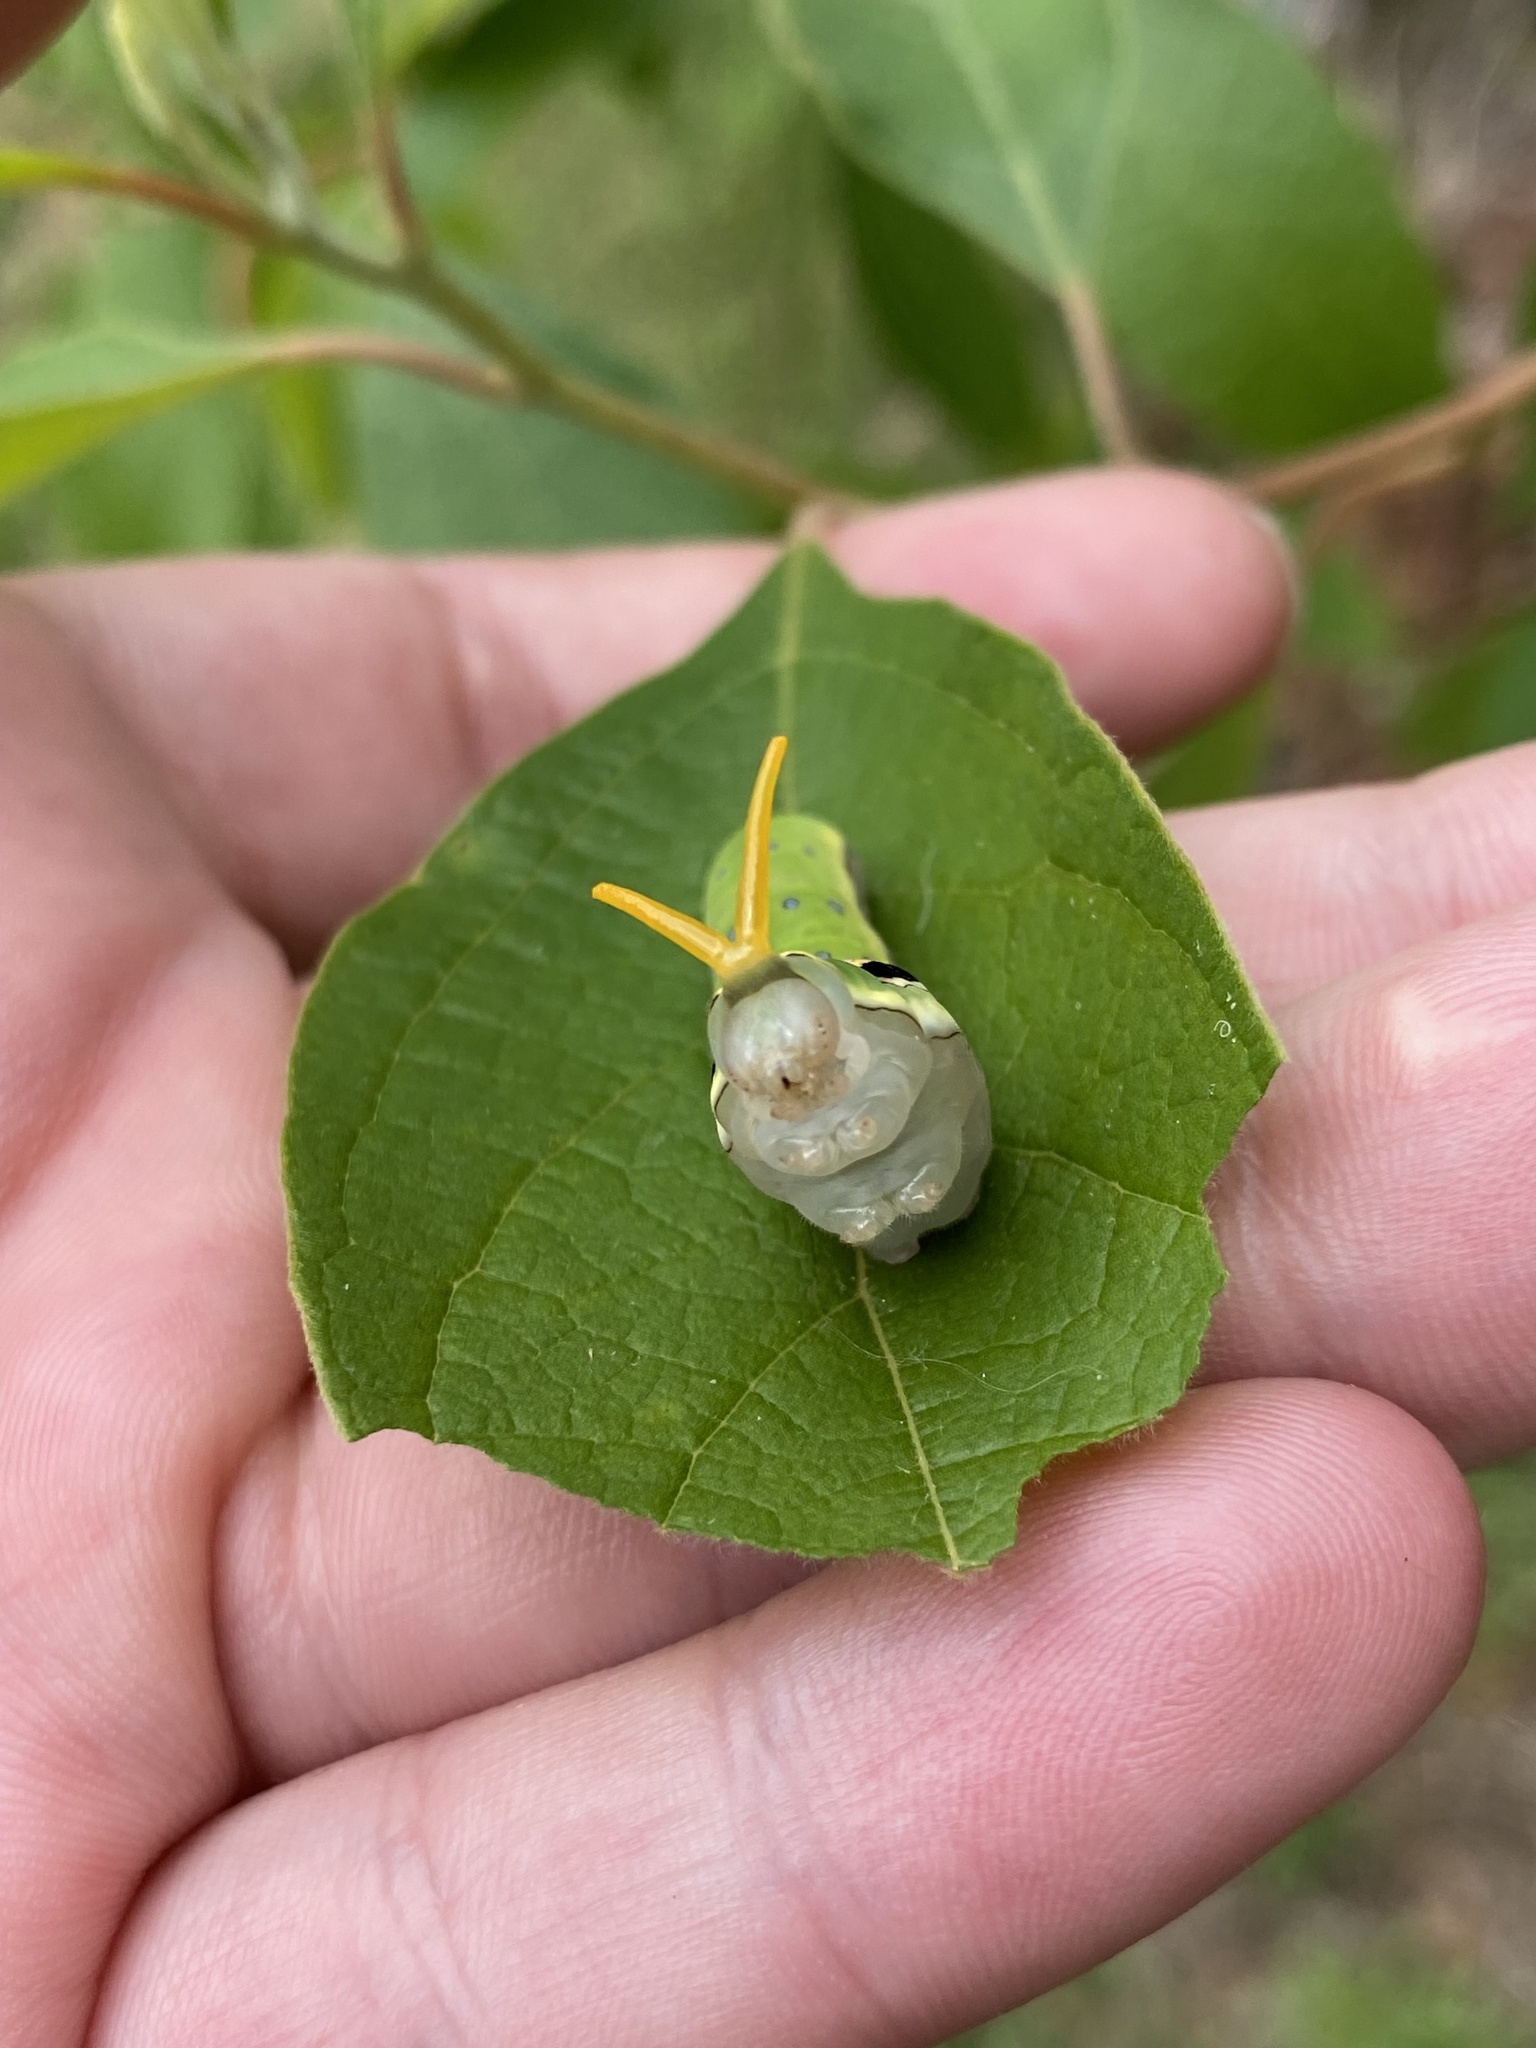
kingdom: Animalia
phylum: Arthropoda
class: Insecta
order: Lepidoptera
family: Papilionidae
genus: Papilio
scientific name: Papilio troilus
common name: Spicebush swallowtail
